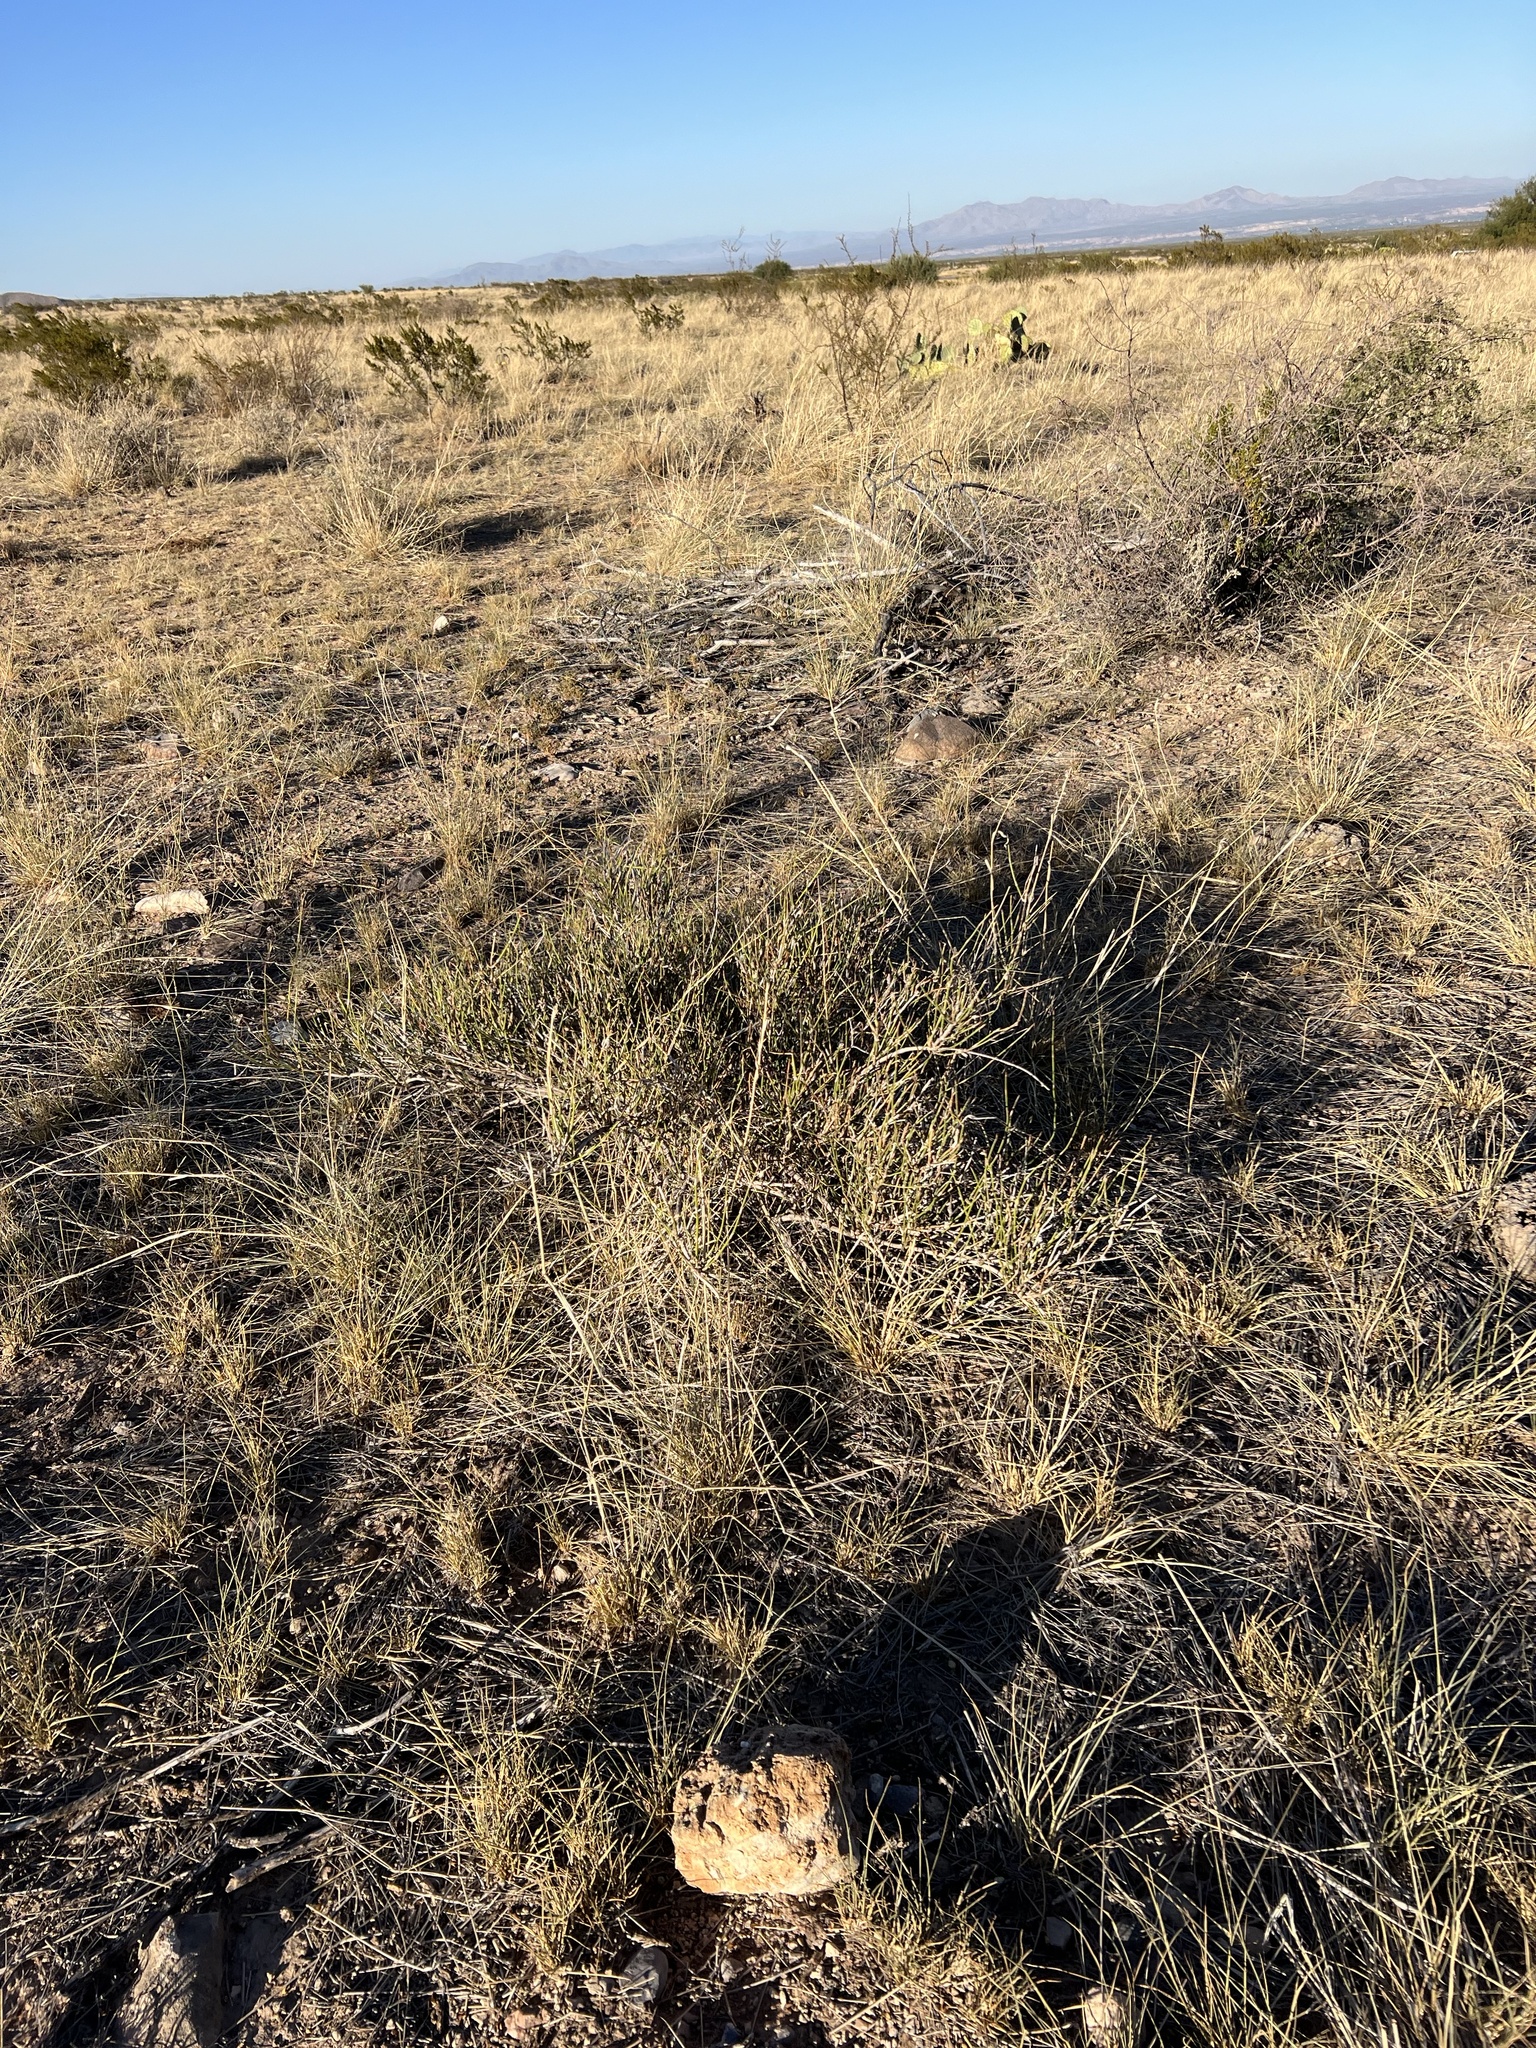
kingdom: Plantae
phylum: Tracheophyta
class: Gnetopsida
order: Ephedrales
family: Ephedraceae
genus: Ephedra
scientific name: Ephedra trifurca
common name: Mexican-tea
